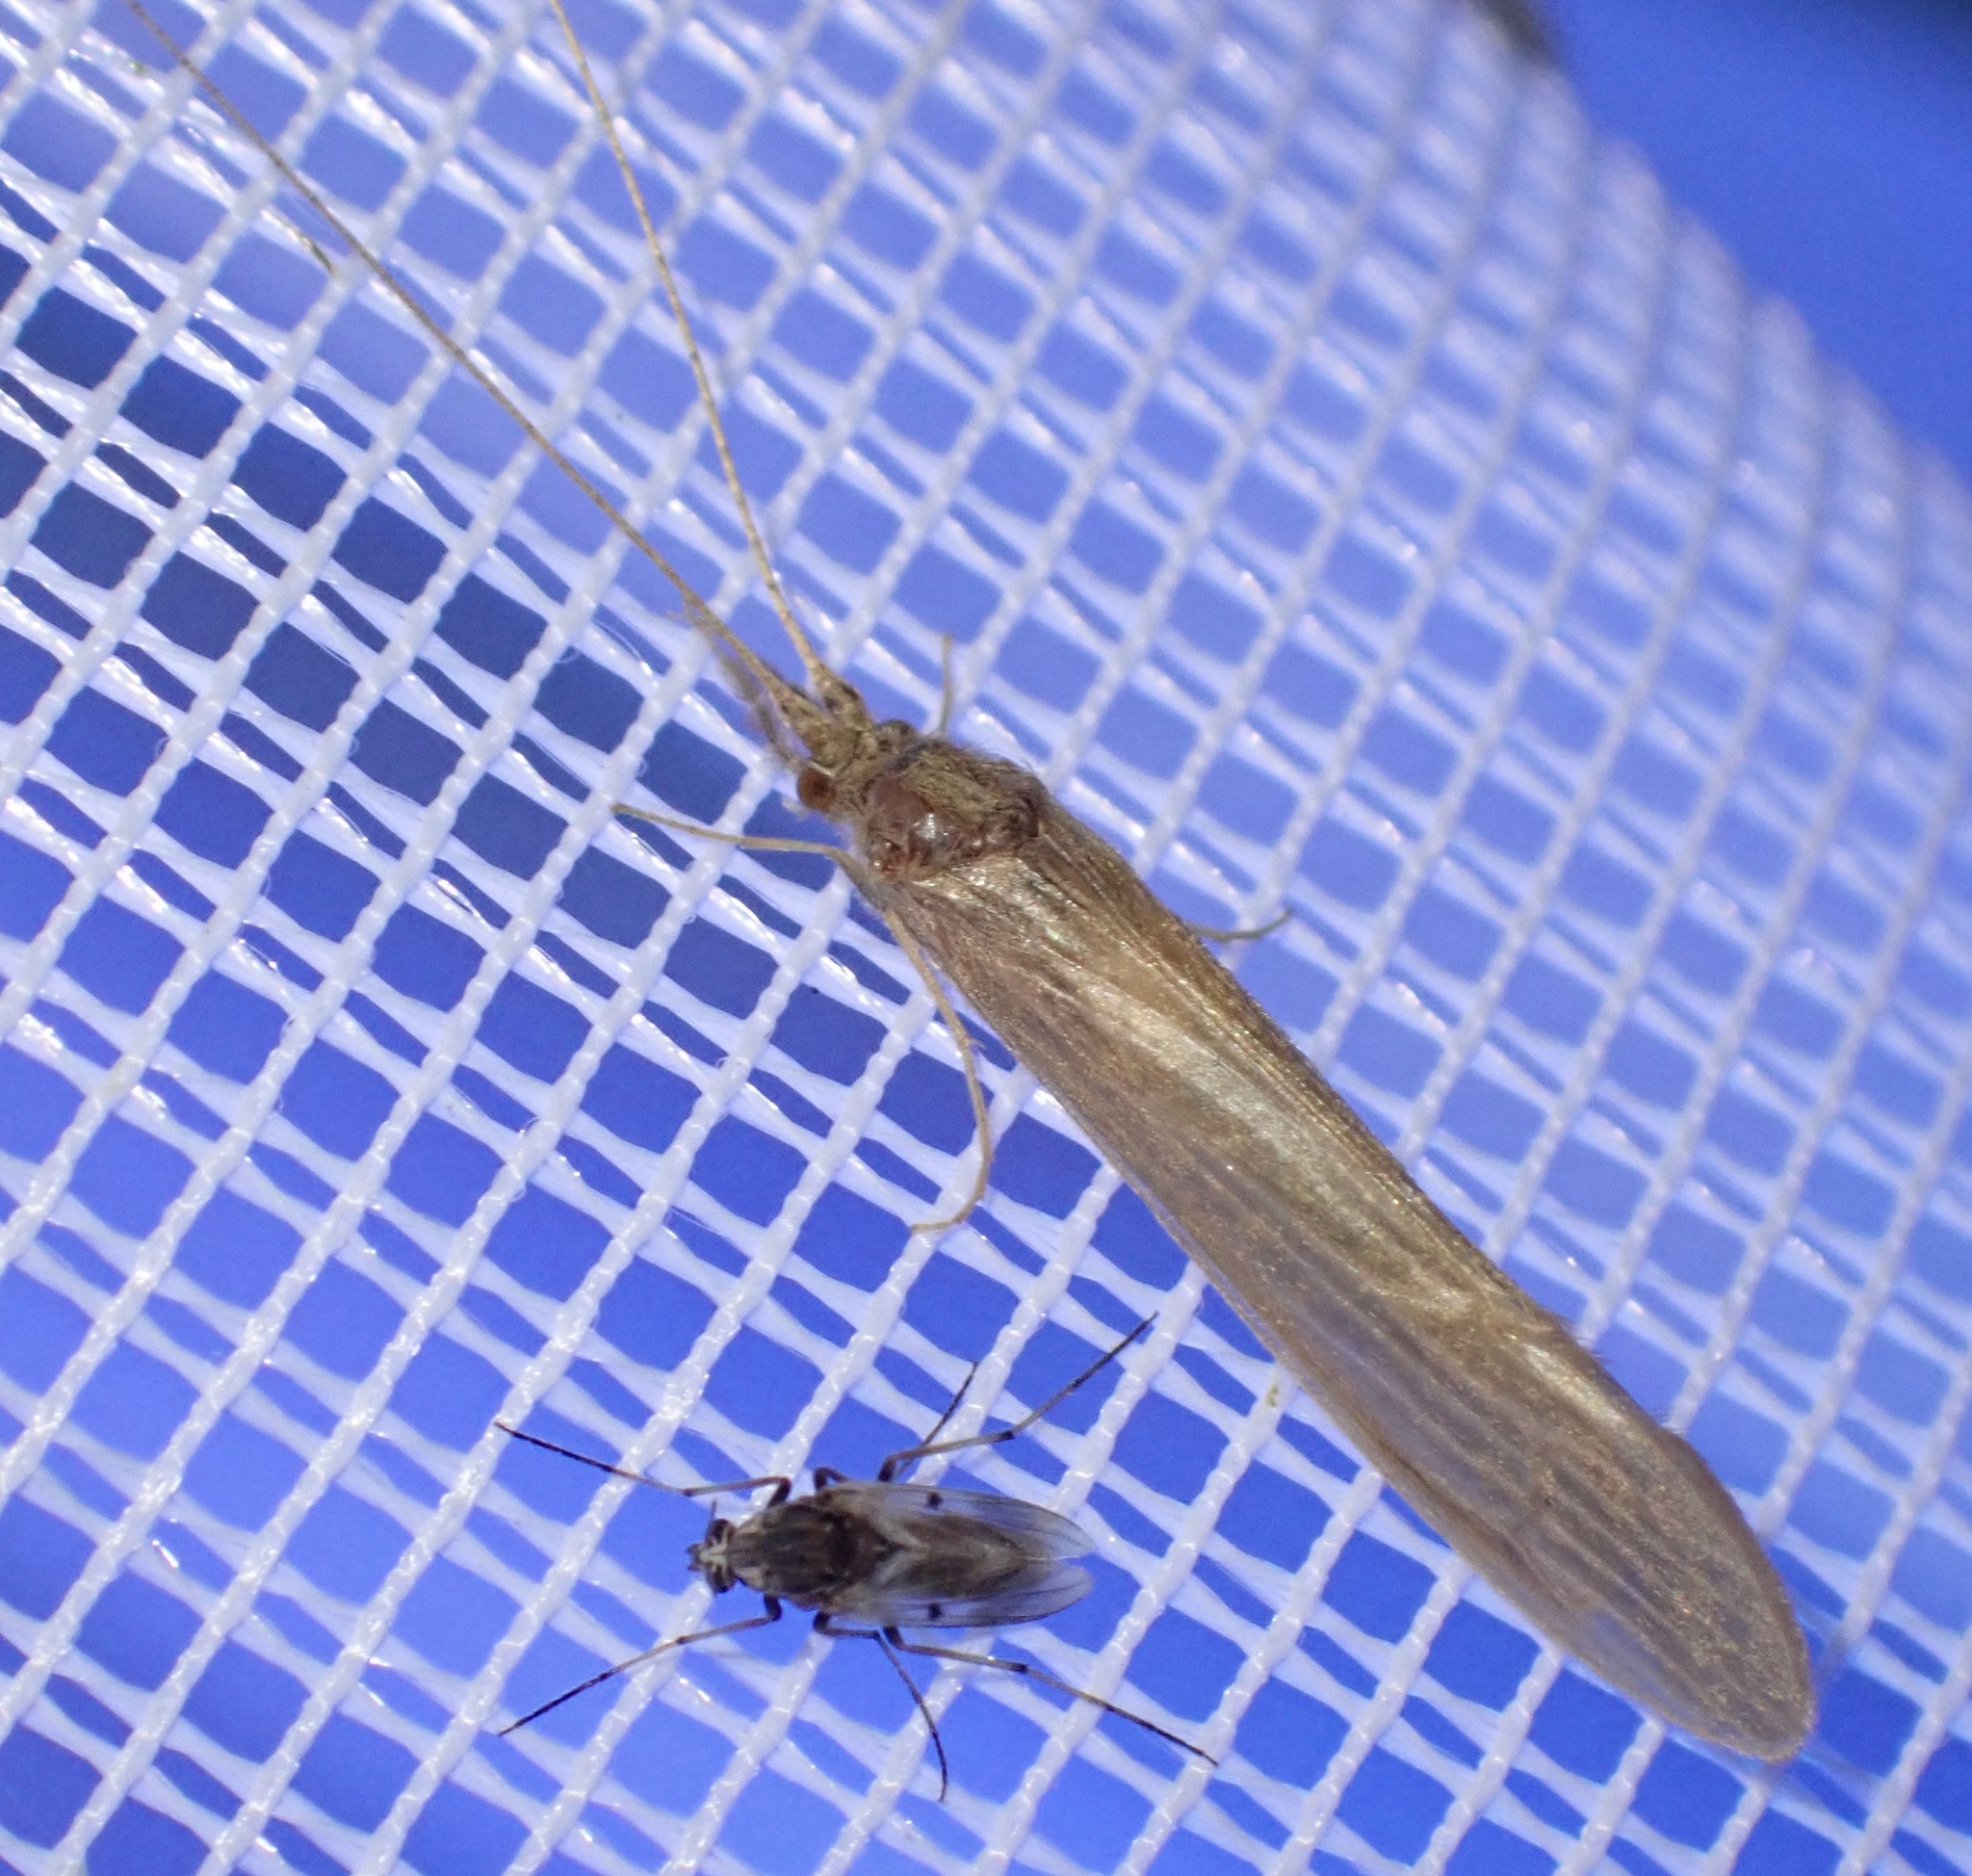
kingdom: Animalia
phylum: Arthropoda
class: Insecta
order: Trichoptera
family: Leptoceridae
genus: Oecetis
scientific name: Oecetis ochracea
